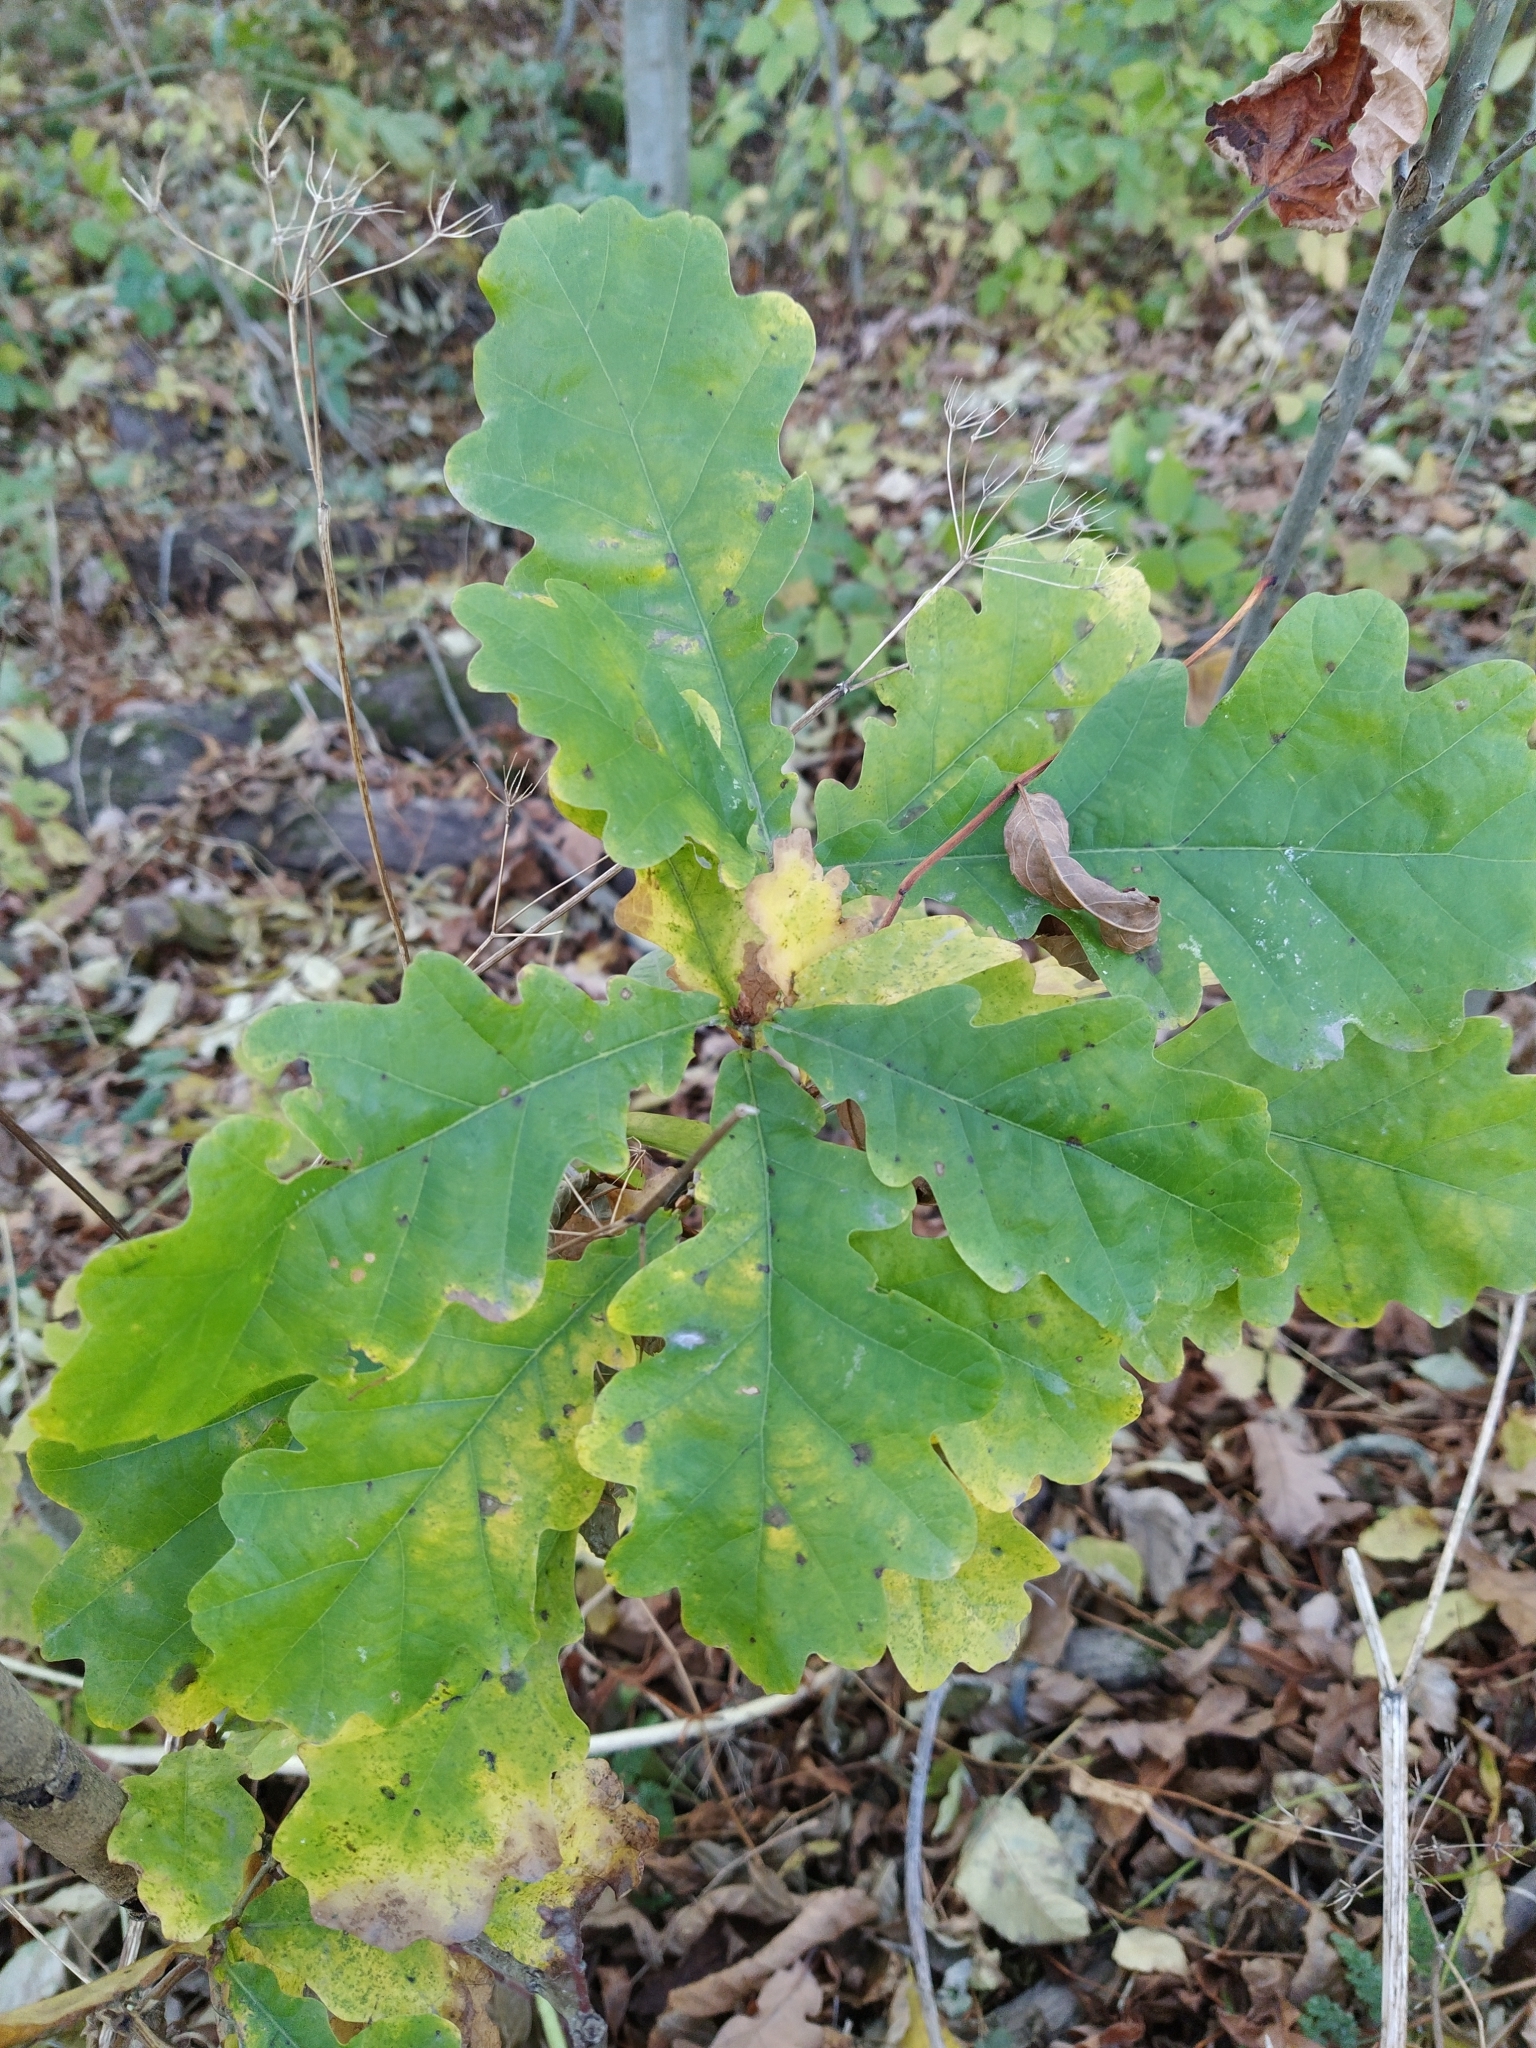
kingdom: Plantae
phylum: Tracheophyta
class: Magnoliopsida
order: Fagales
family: Fagaceae
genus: Quercus
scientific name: Quercus robur
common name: Pedunculate oak
